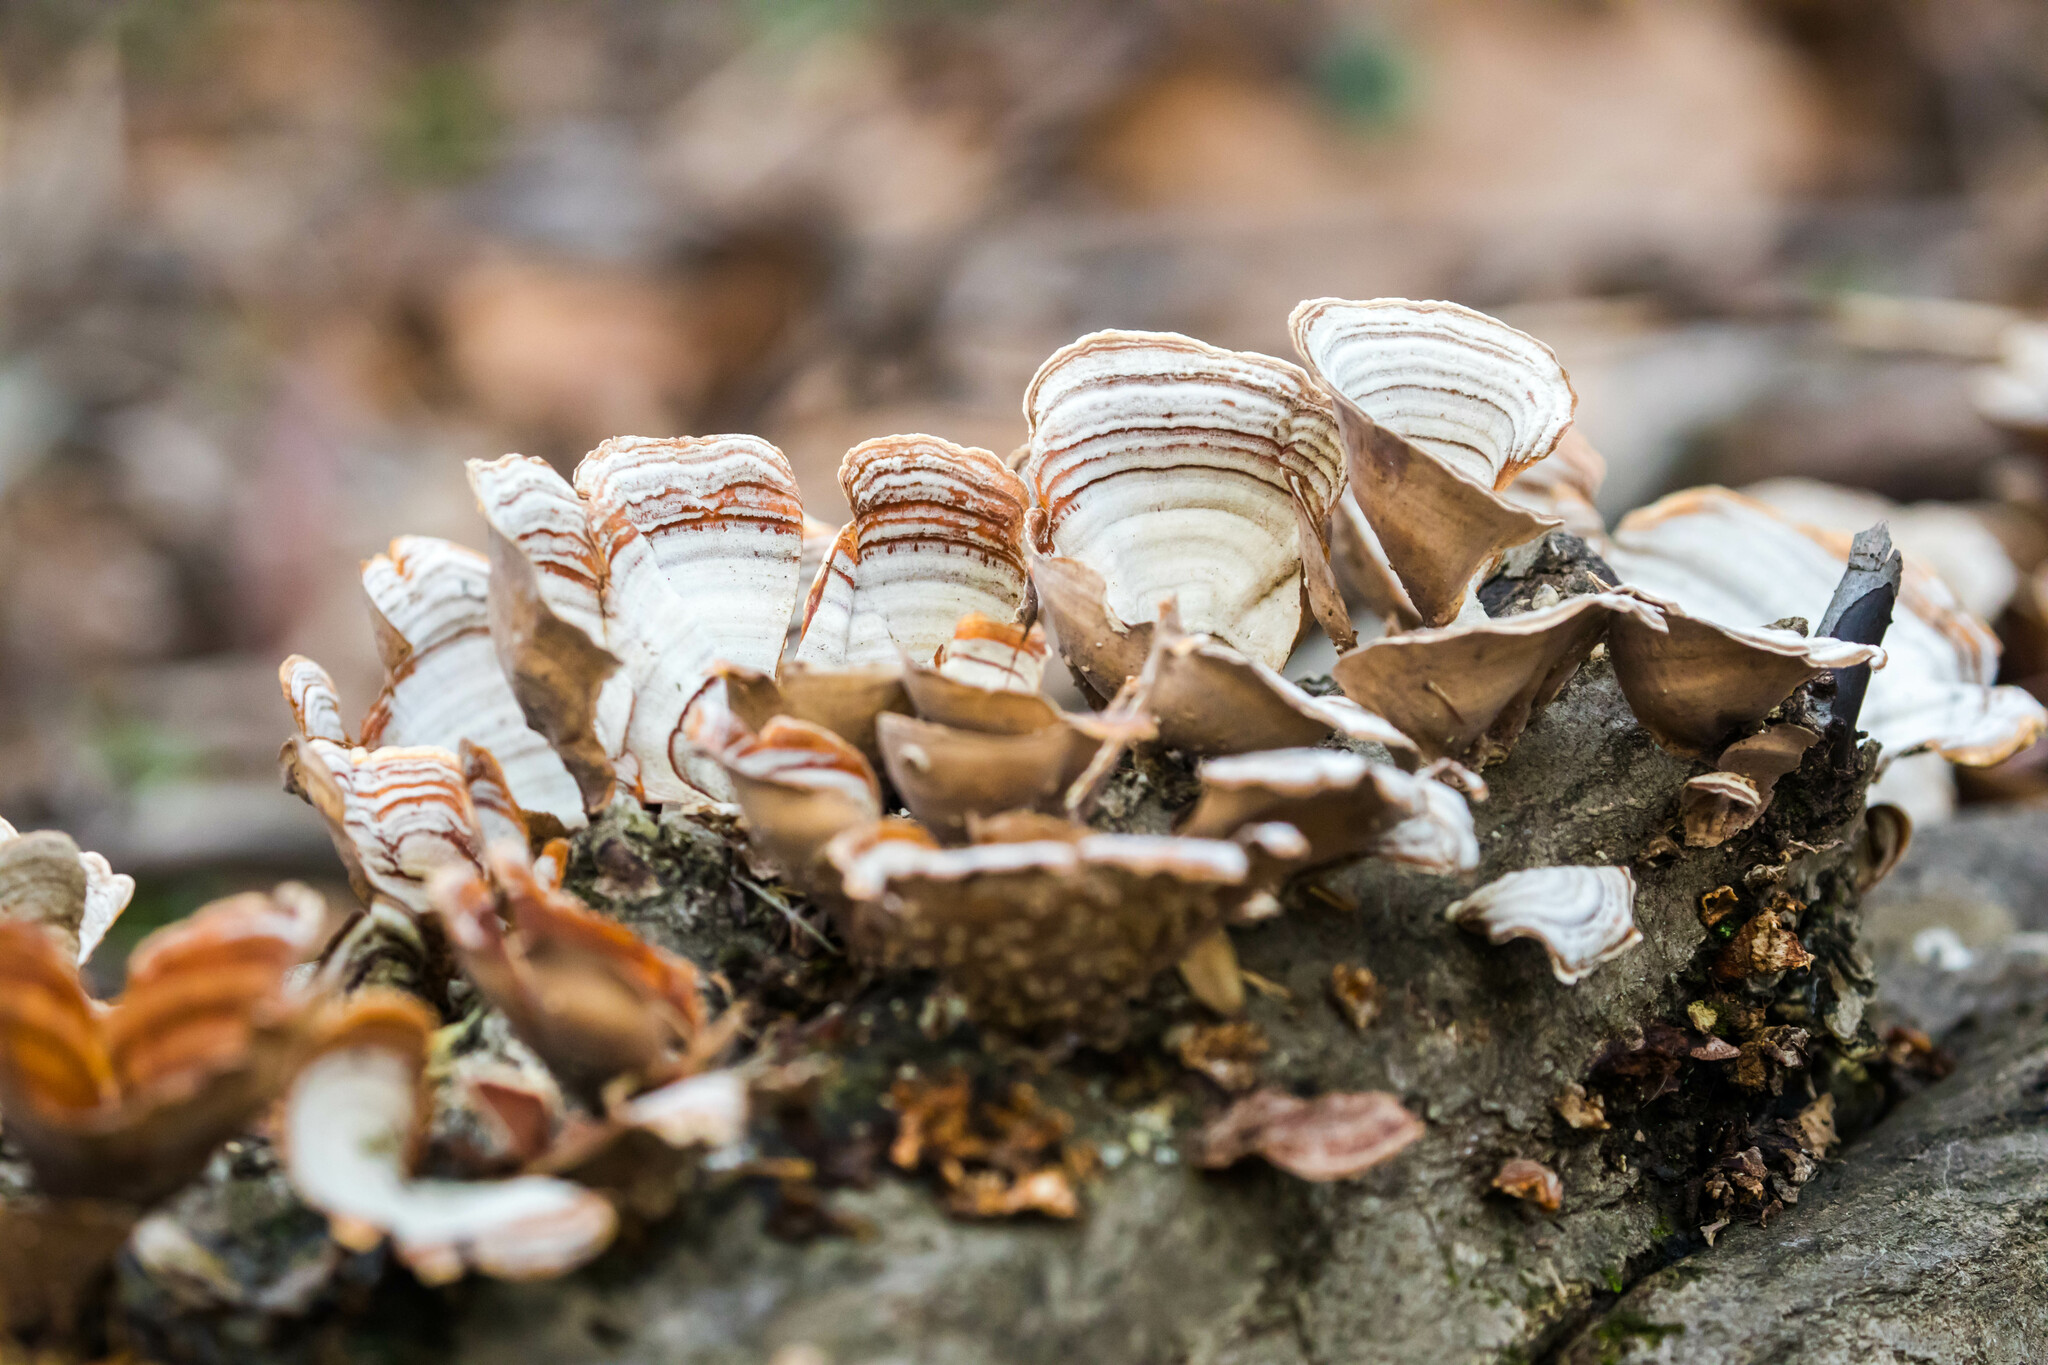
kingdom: Fungi
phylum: Basidiomycota
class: Agaricomycetes
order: Russulales
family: Stereaceae
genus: Stereum
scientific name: Stereum lobatum
